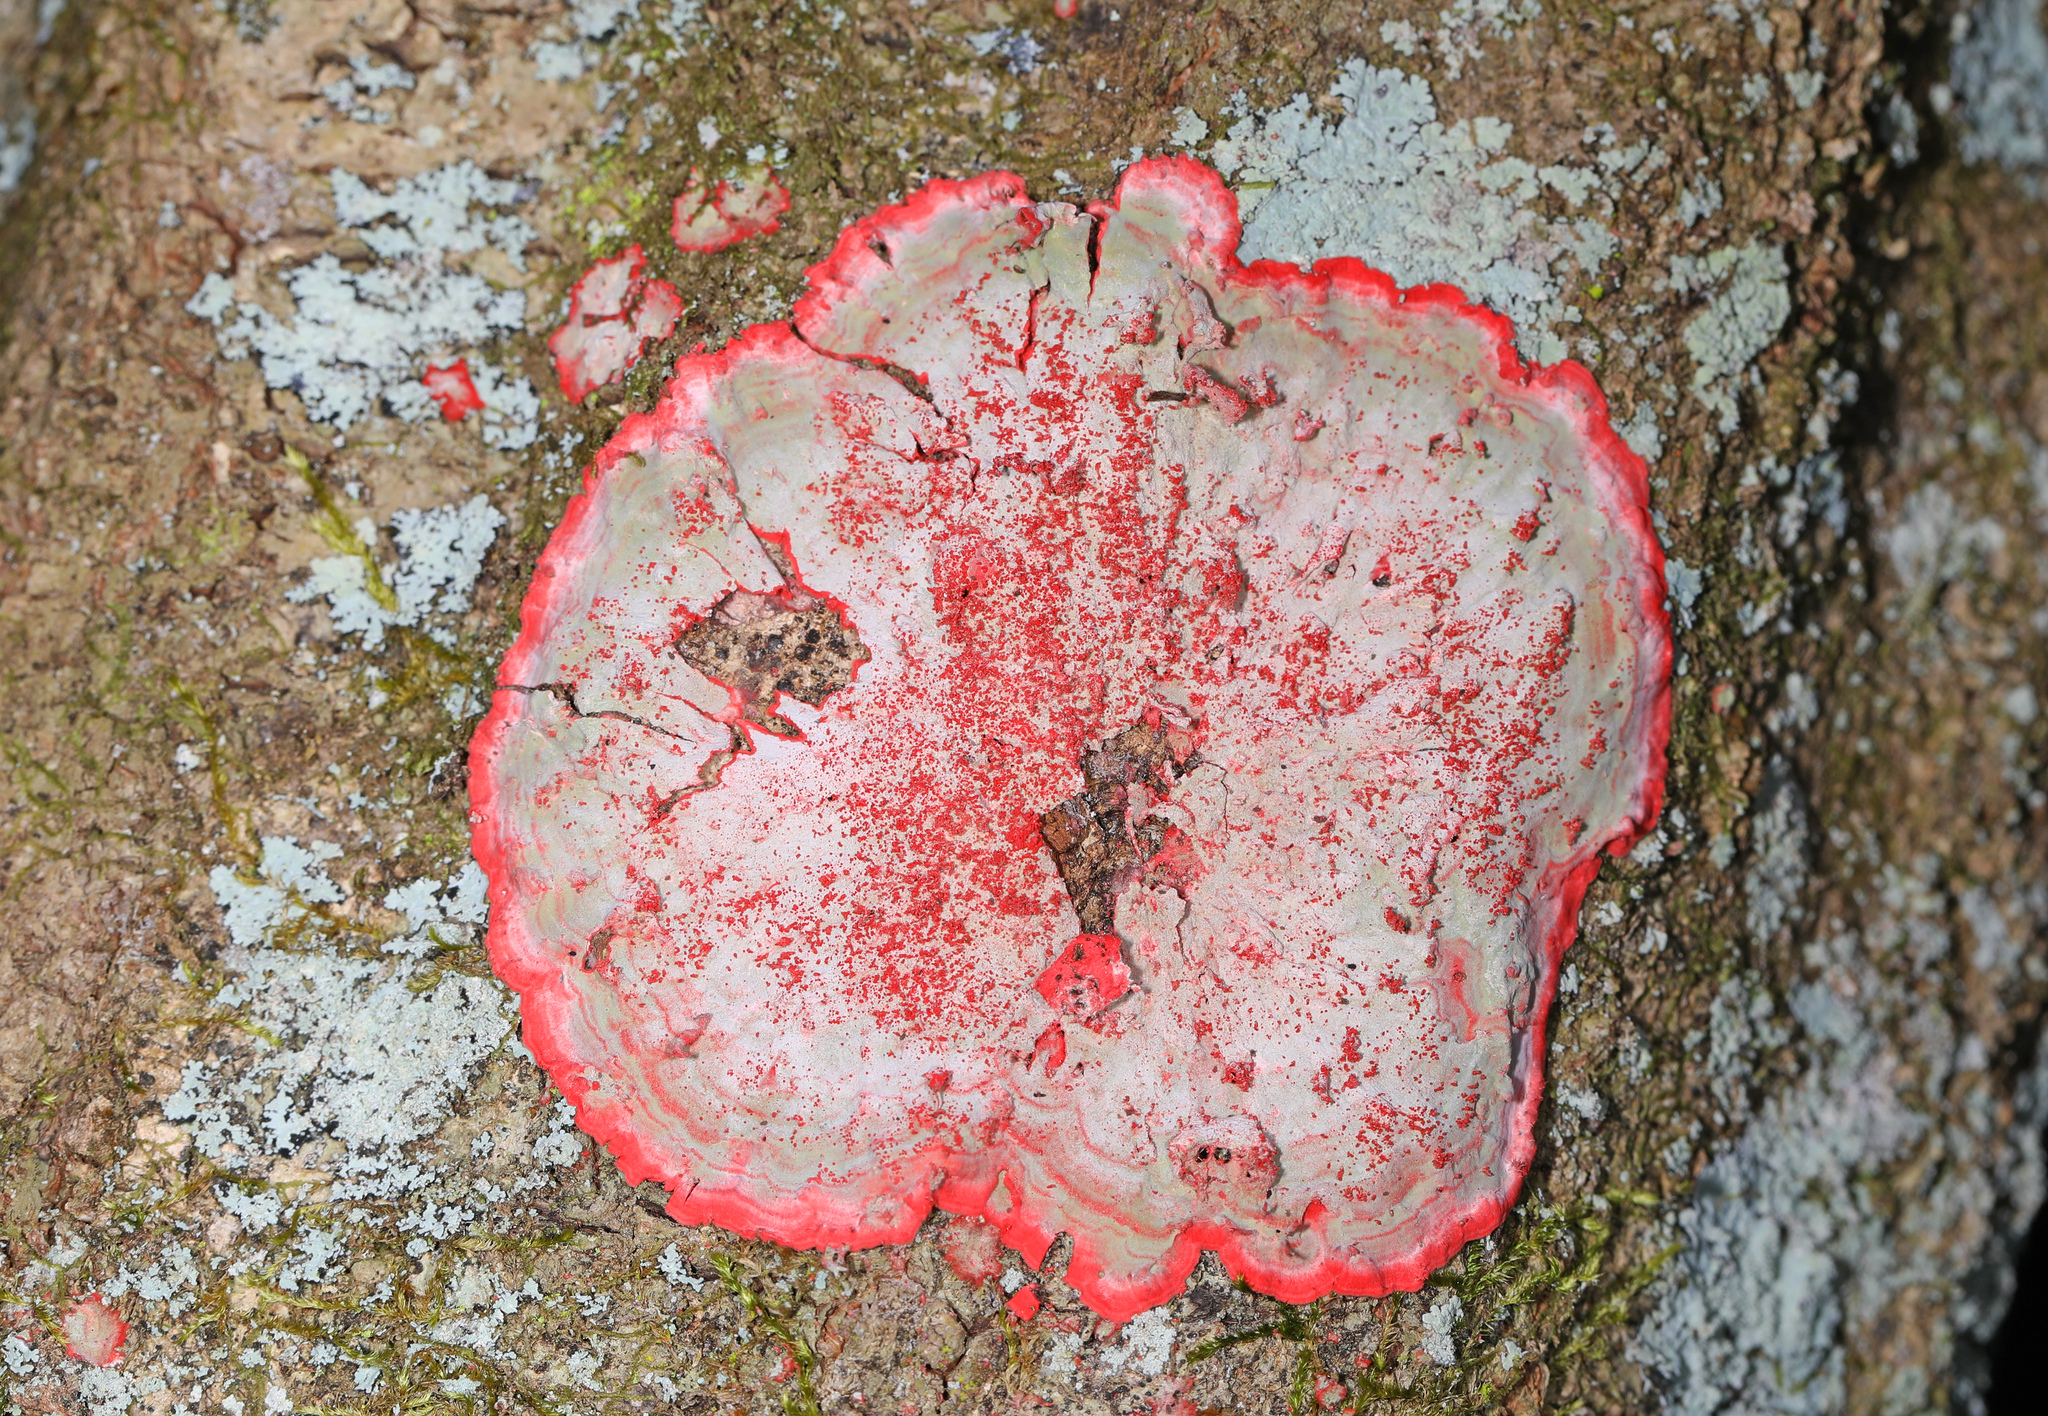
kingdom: Fungi
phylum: Ascomycota
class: Arthoniomycetes
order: Arthoniales
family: Arthoniaceae
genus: Herpothallon
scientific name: Herpothallon rubrocinctum
